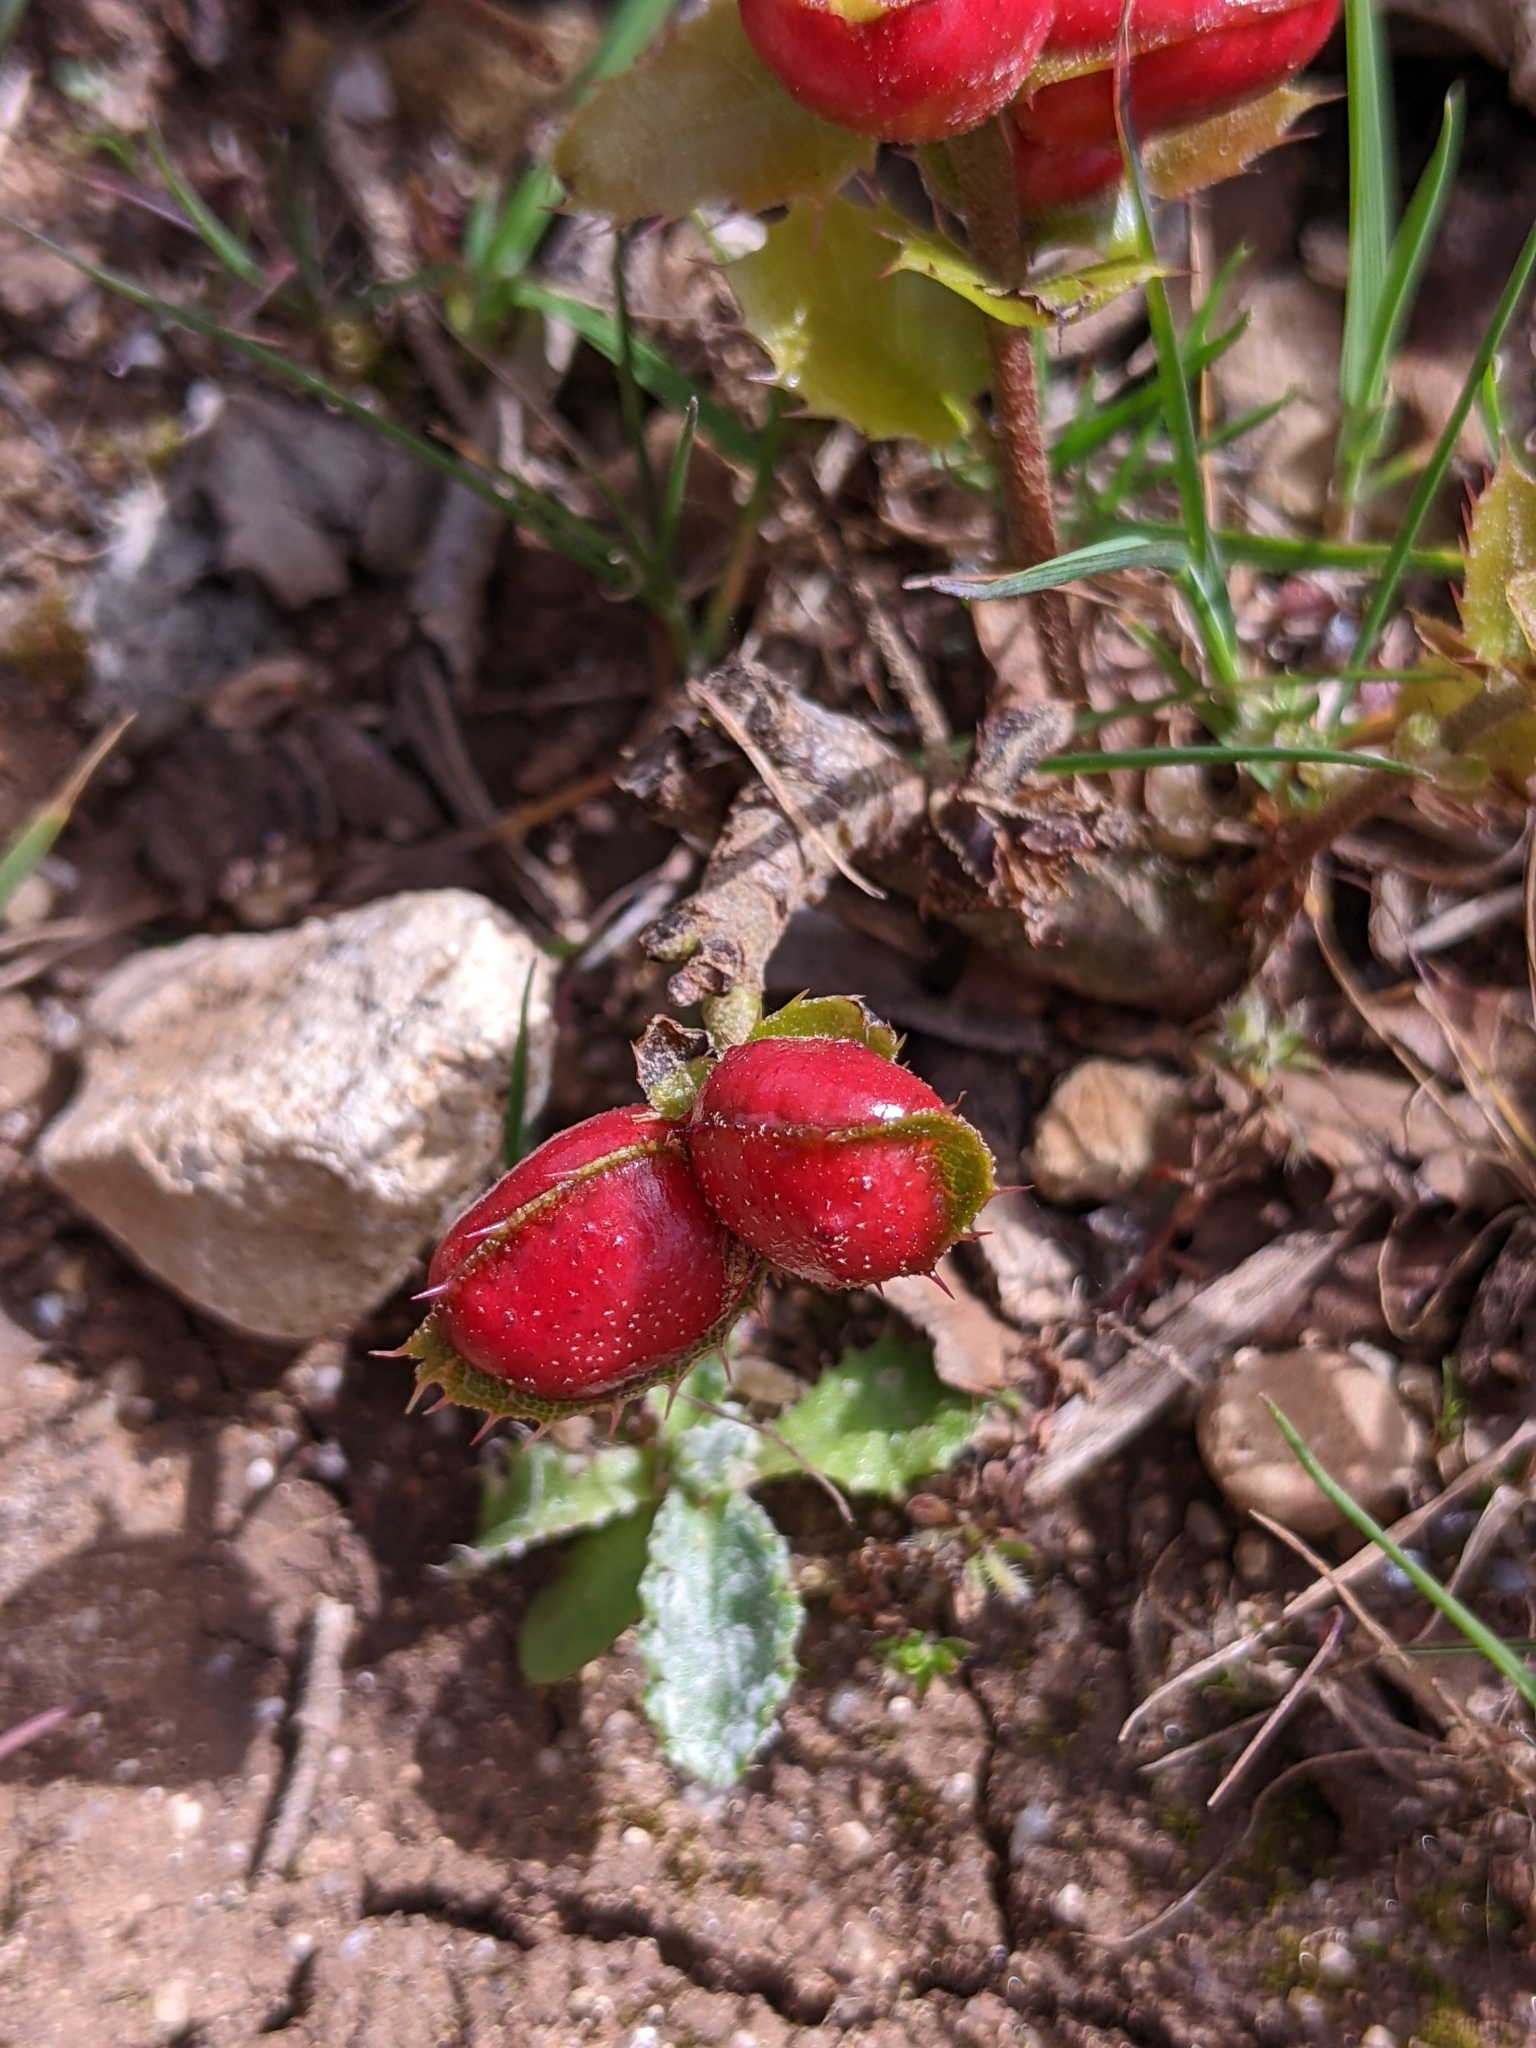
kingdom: Animalia
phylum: Arthropoda
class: Insecta
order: Hymenoptera
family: Cynipidae
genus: Plagiotrochus
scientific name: Plagiotrochus quercusilicis
